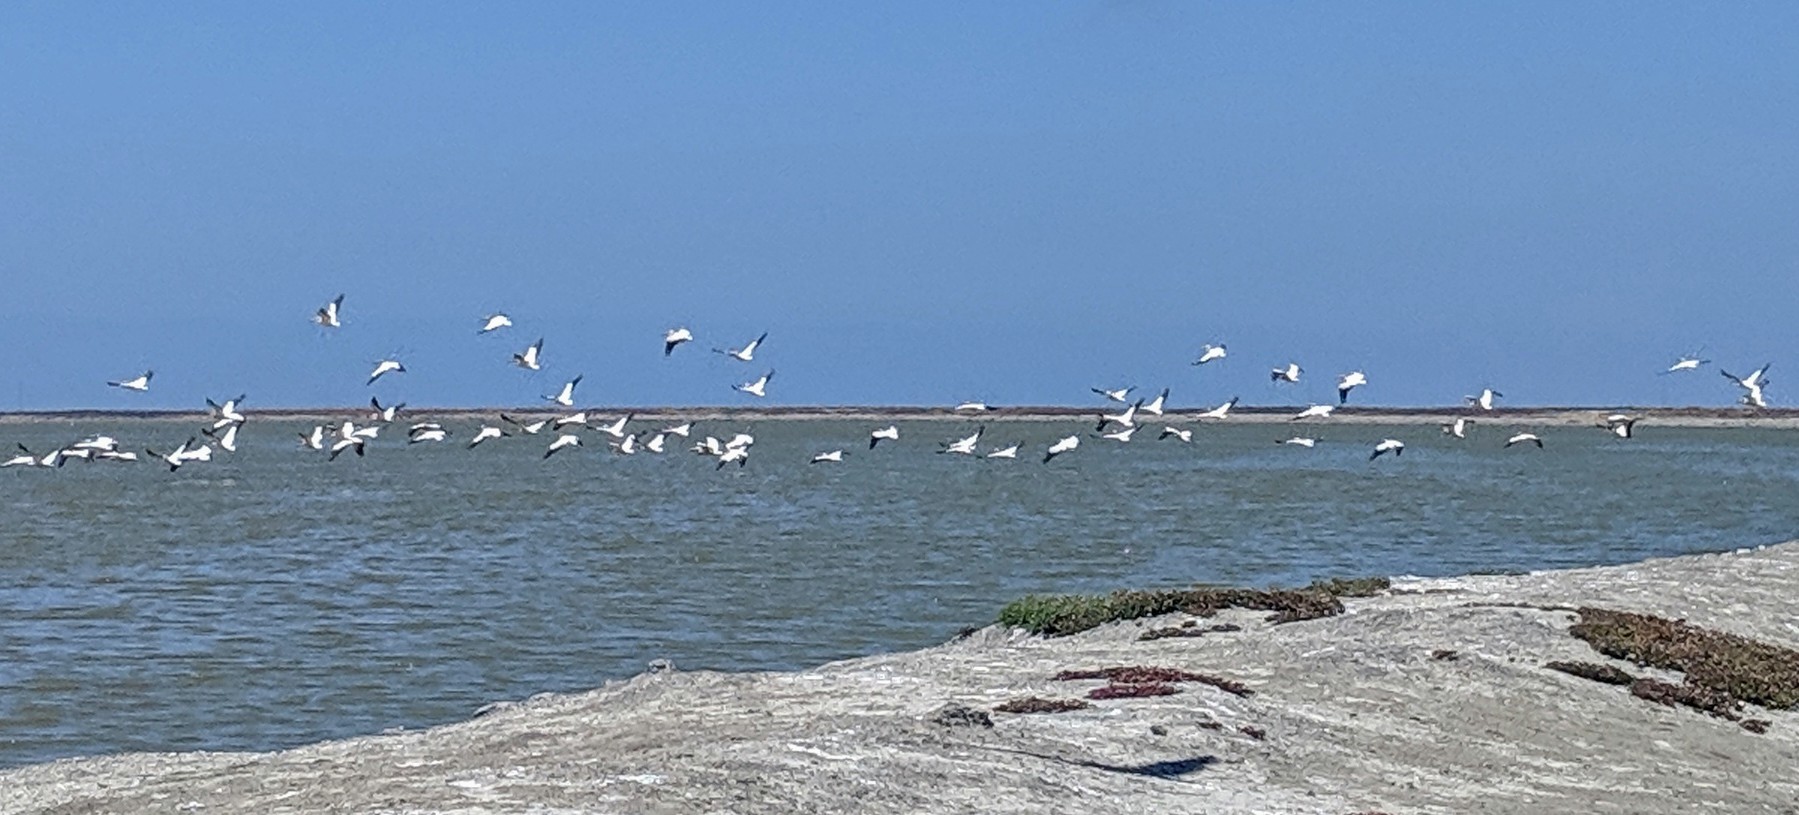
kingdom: Animalia
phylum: Chordata
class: Aves
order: Pelecaniformes
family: Pelecanidae
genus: Pelecanus
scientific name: Pelecanus erythrorhynchos
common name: American white pelican
